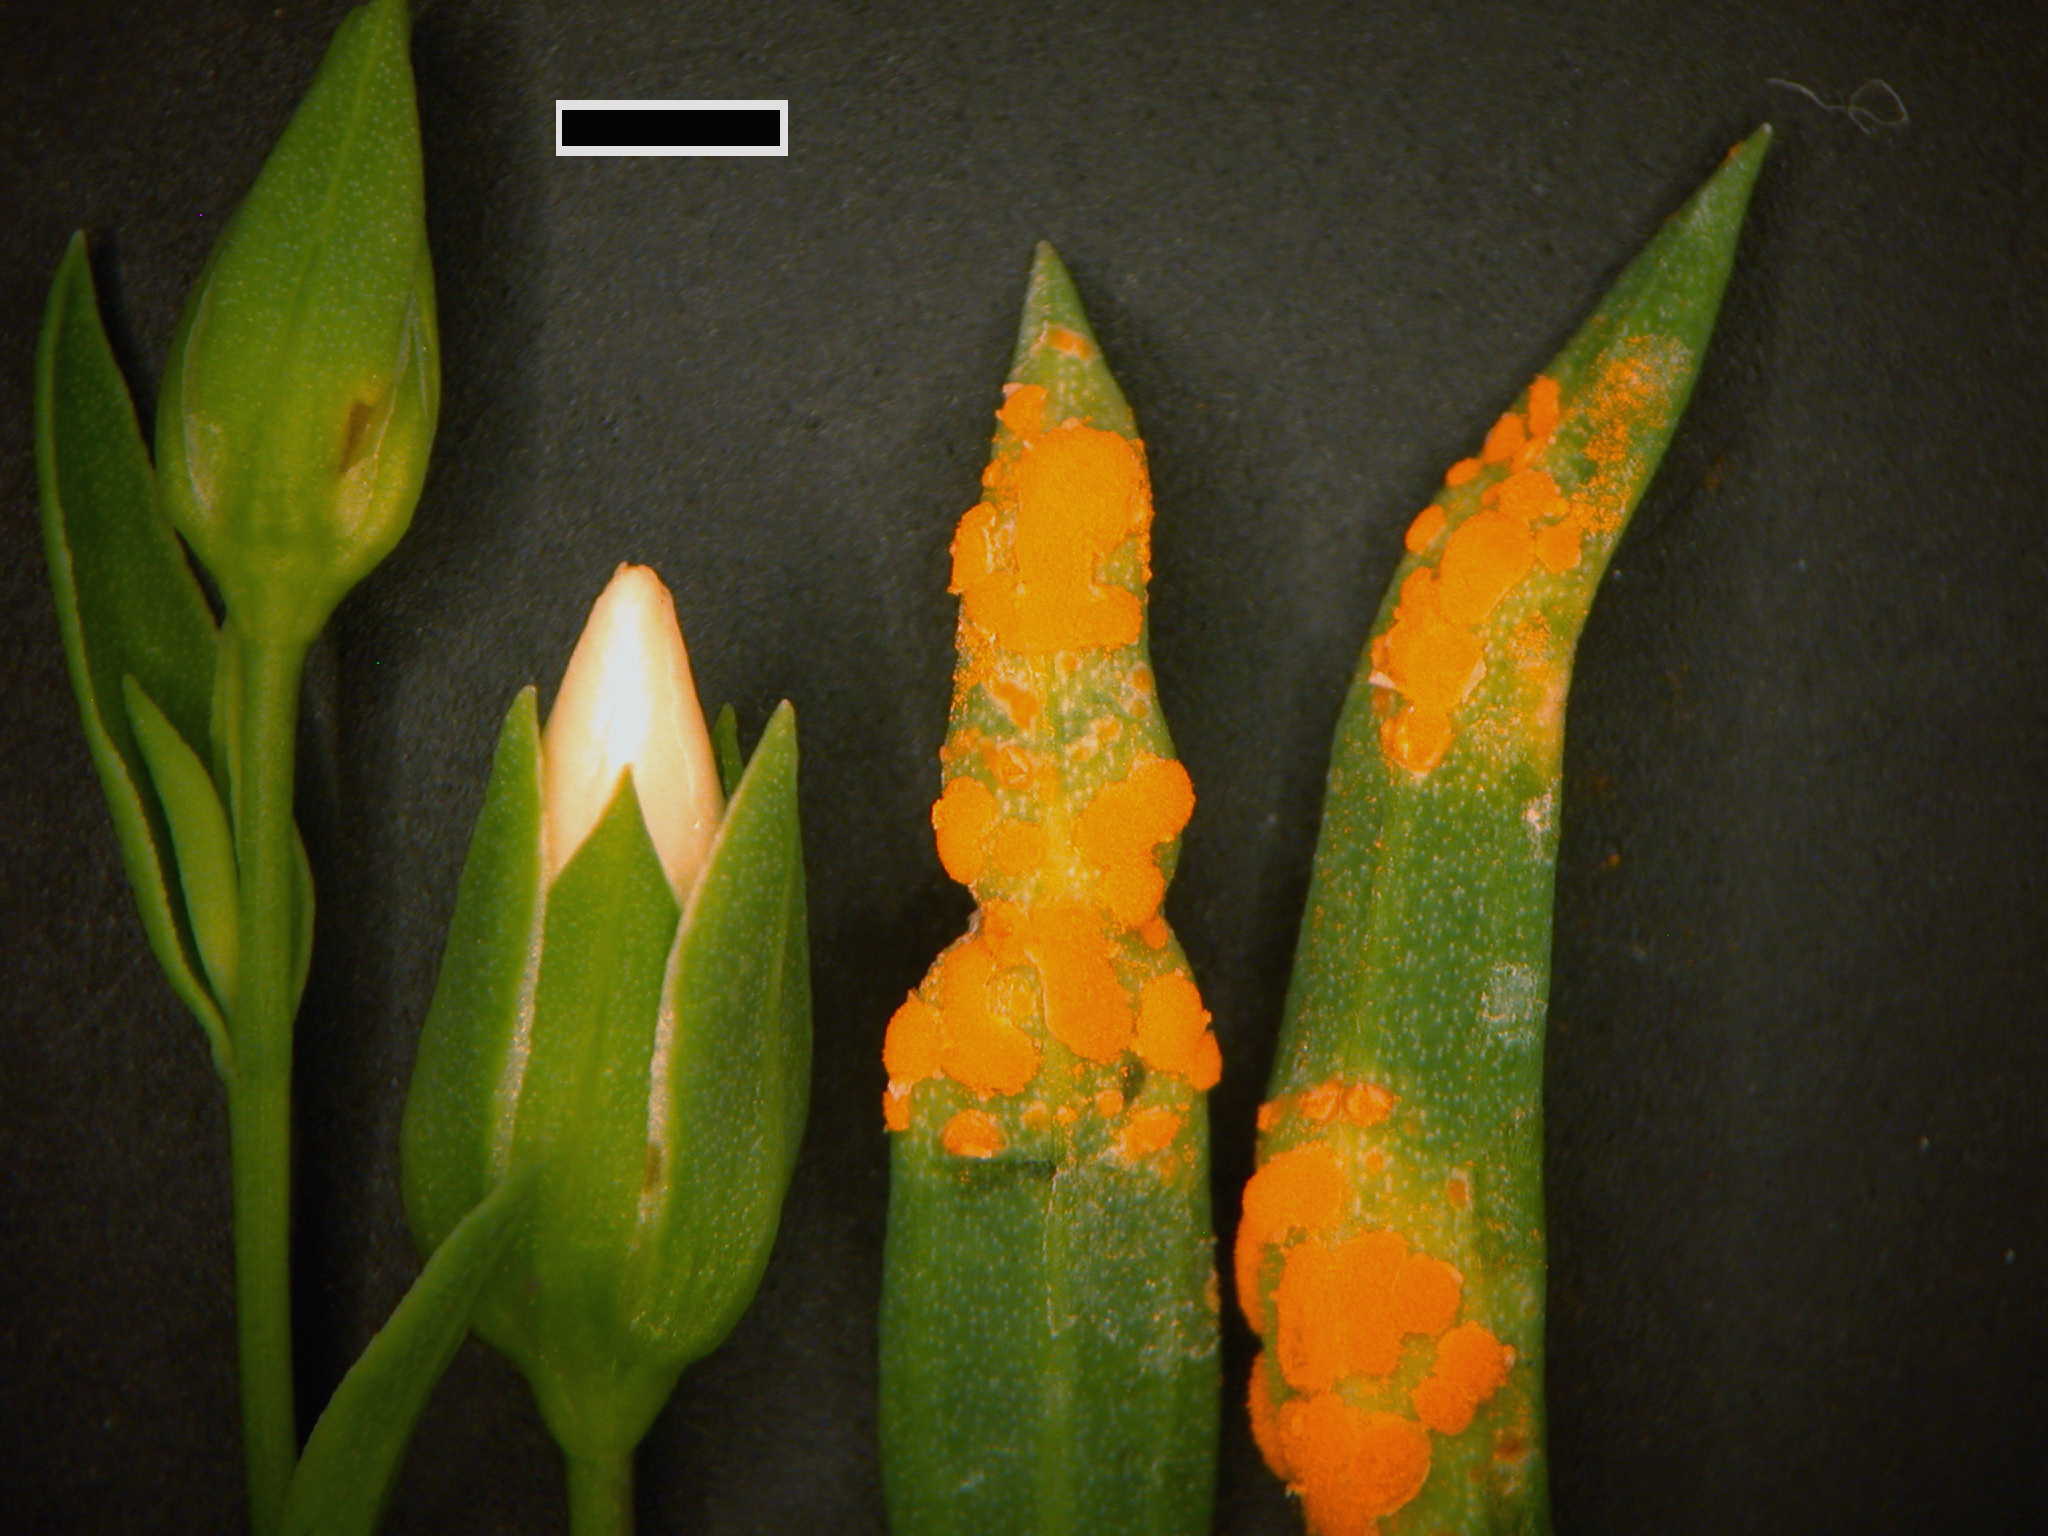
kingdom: Fungi
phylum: Basidiomycota
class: Pucciniomycetes
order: Pucciniales
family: Melampsoraceae
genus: Melampsora
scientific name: Melampsora lini
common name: Flax rust
